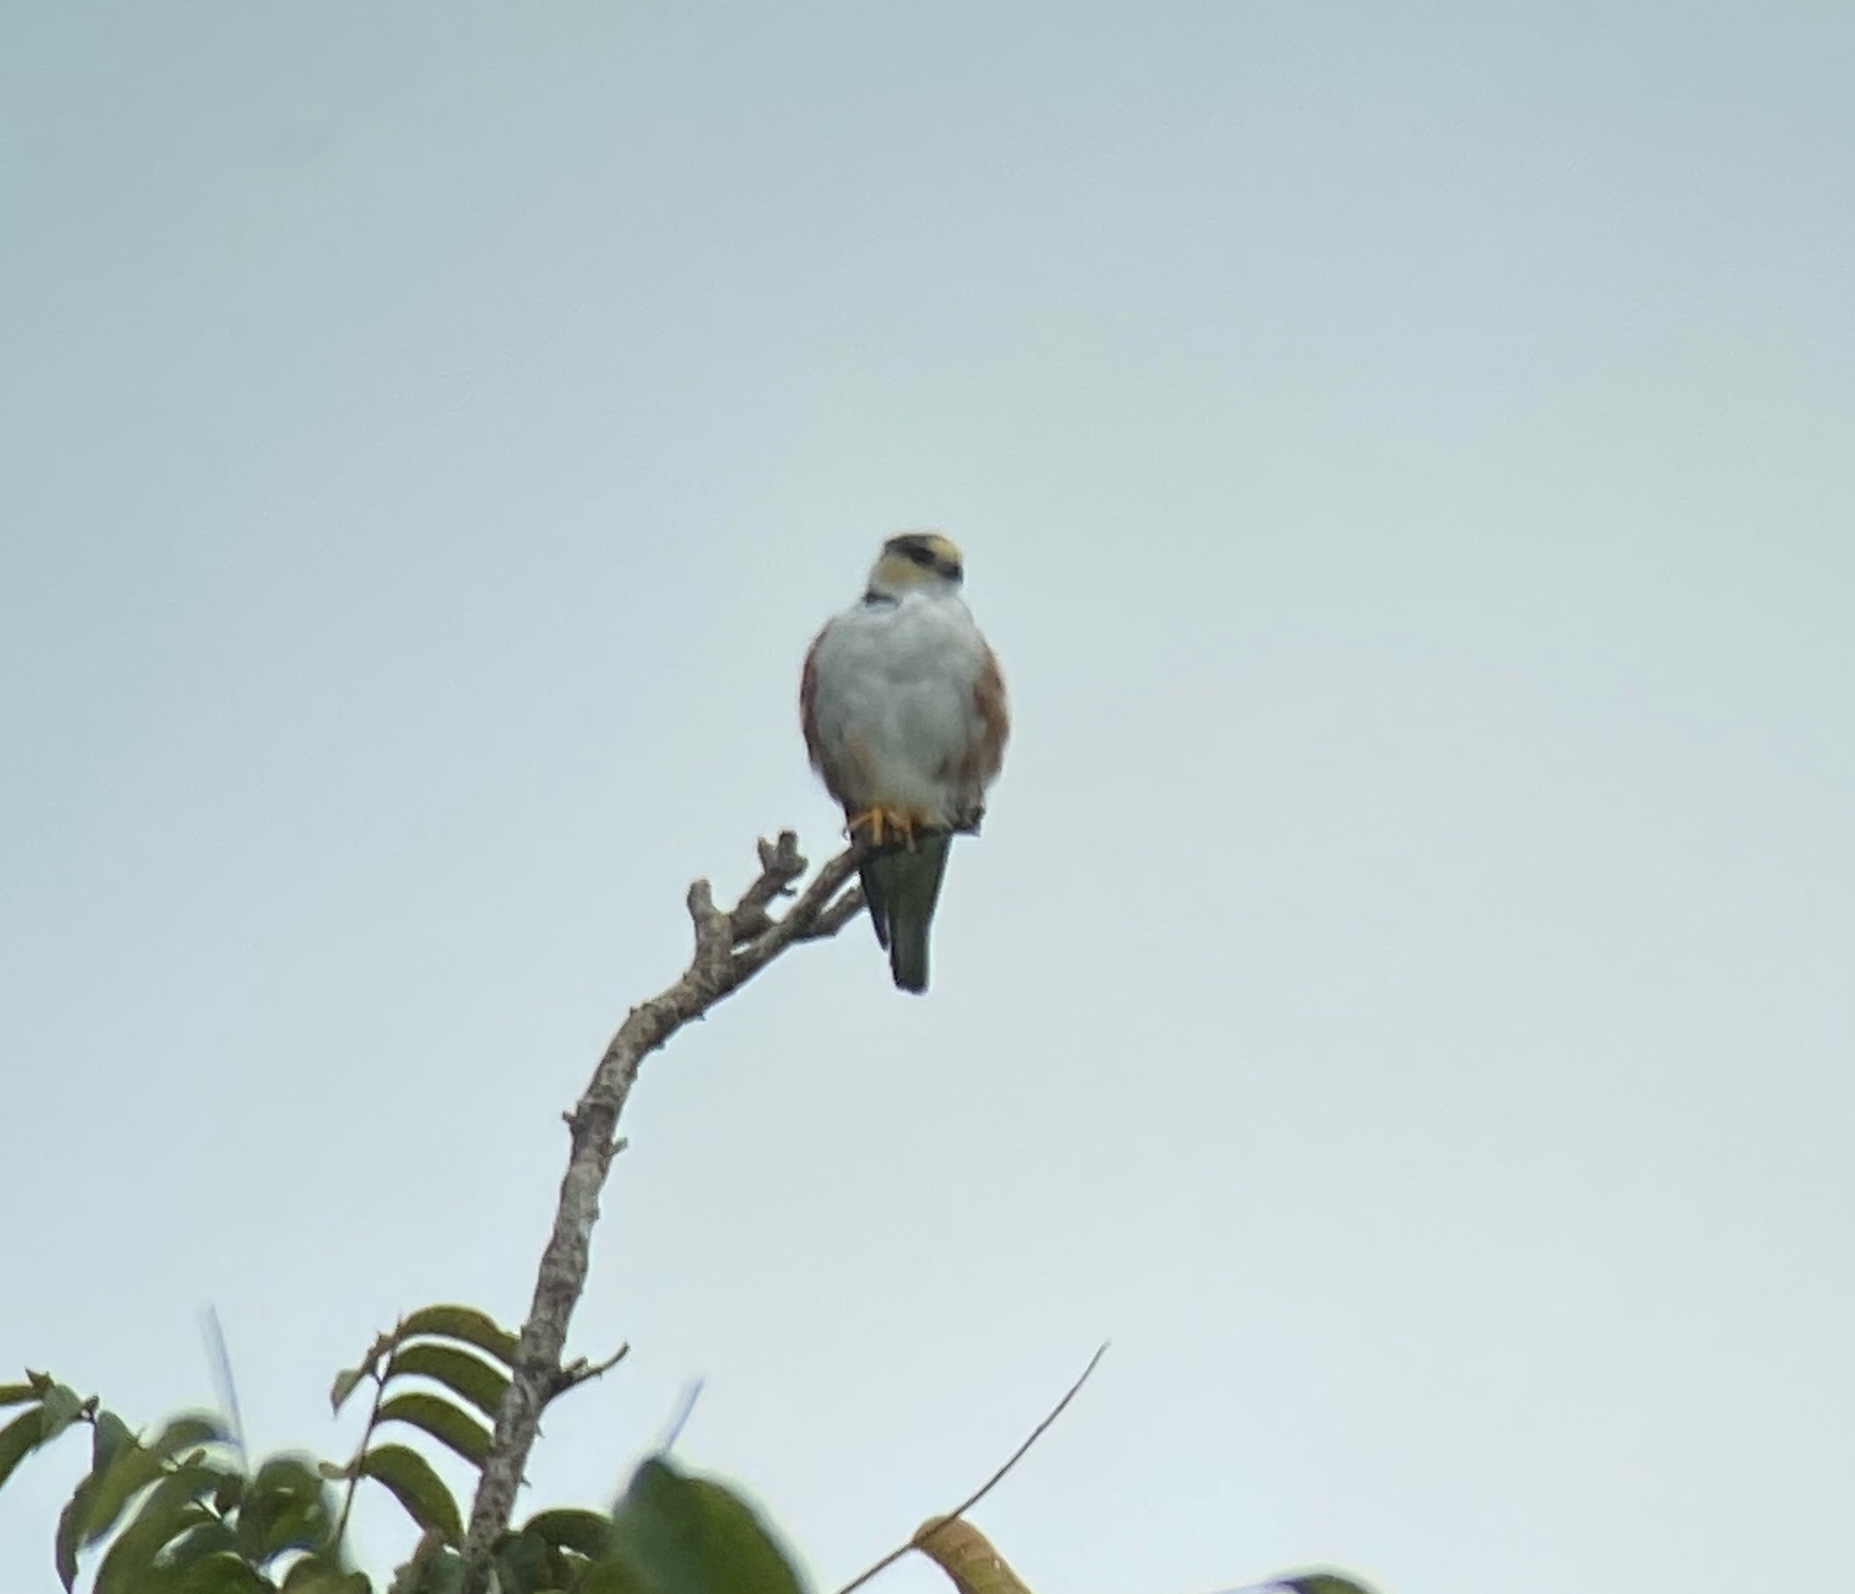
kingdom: Animalia
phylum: Chordata
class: Aves
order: Accipitriformes
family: Accipitridae
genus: Gampsonyx
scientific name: Gampsonyx swainsonii
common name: Pearl kite
